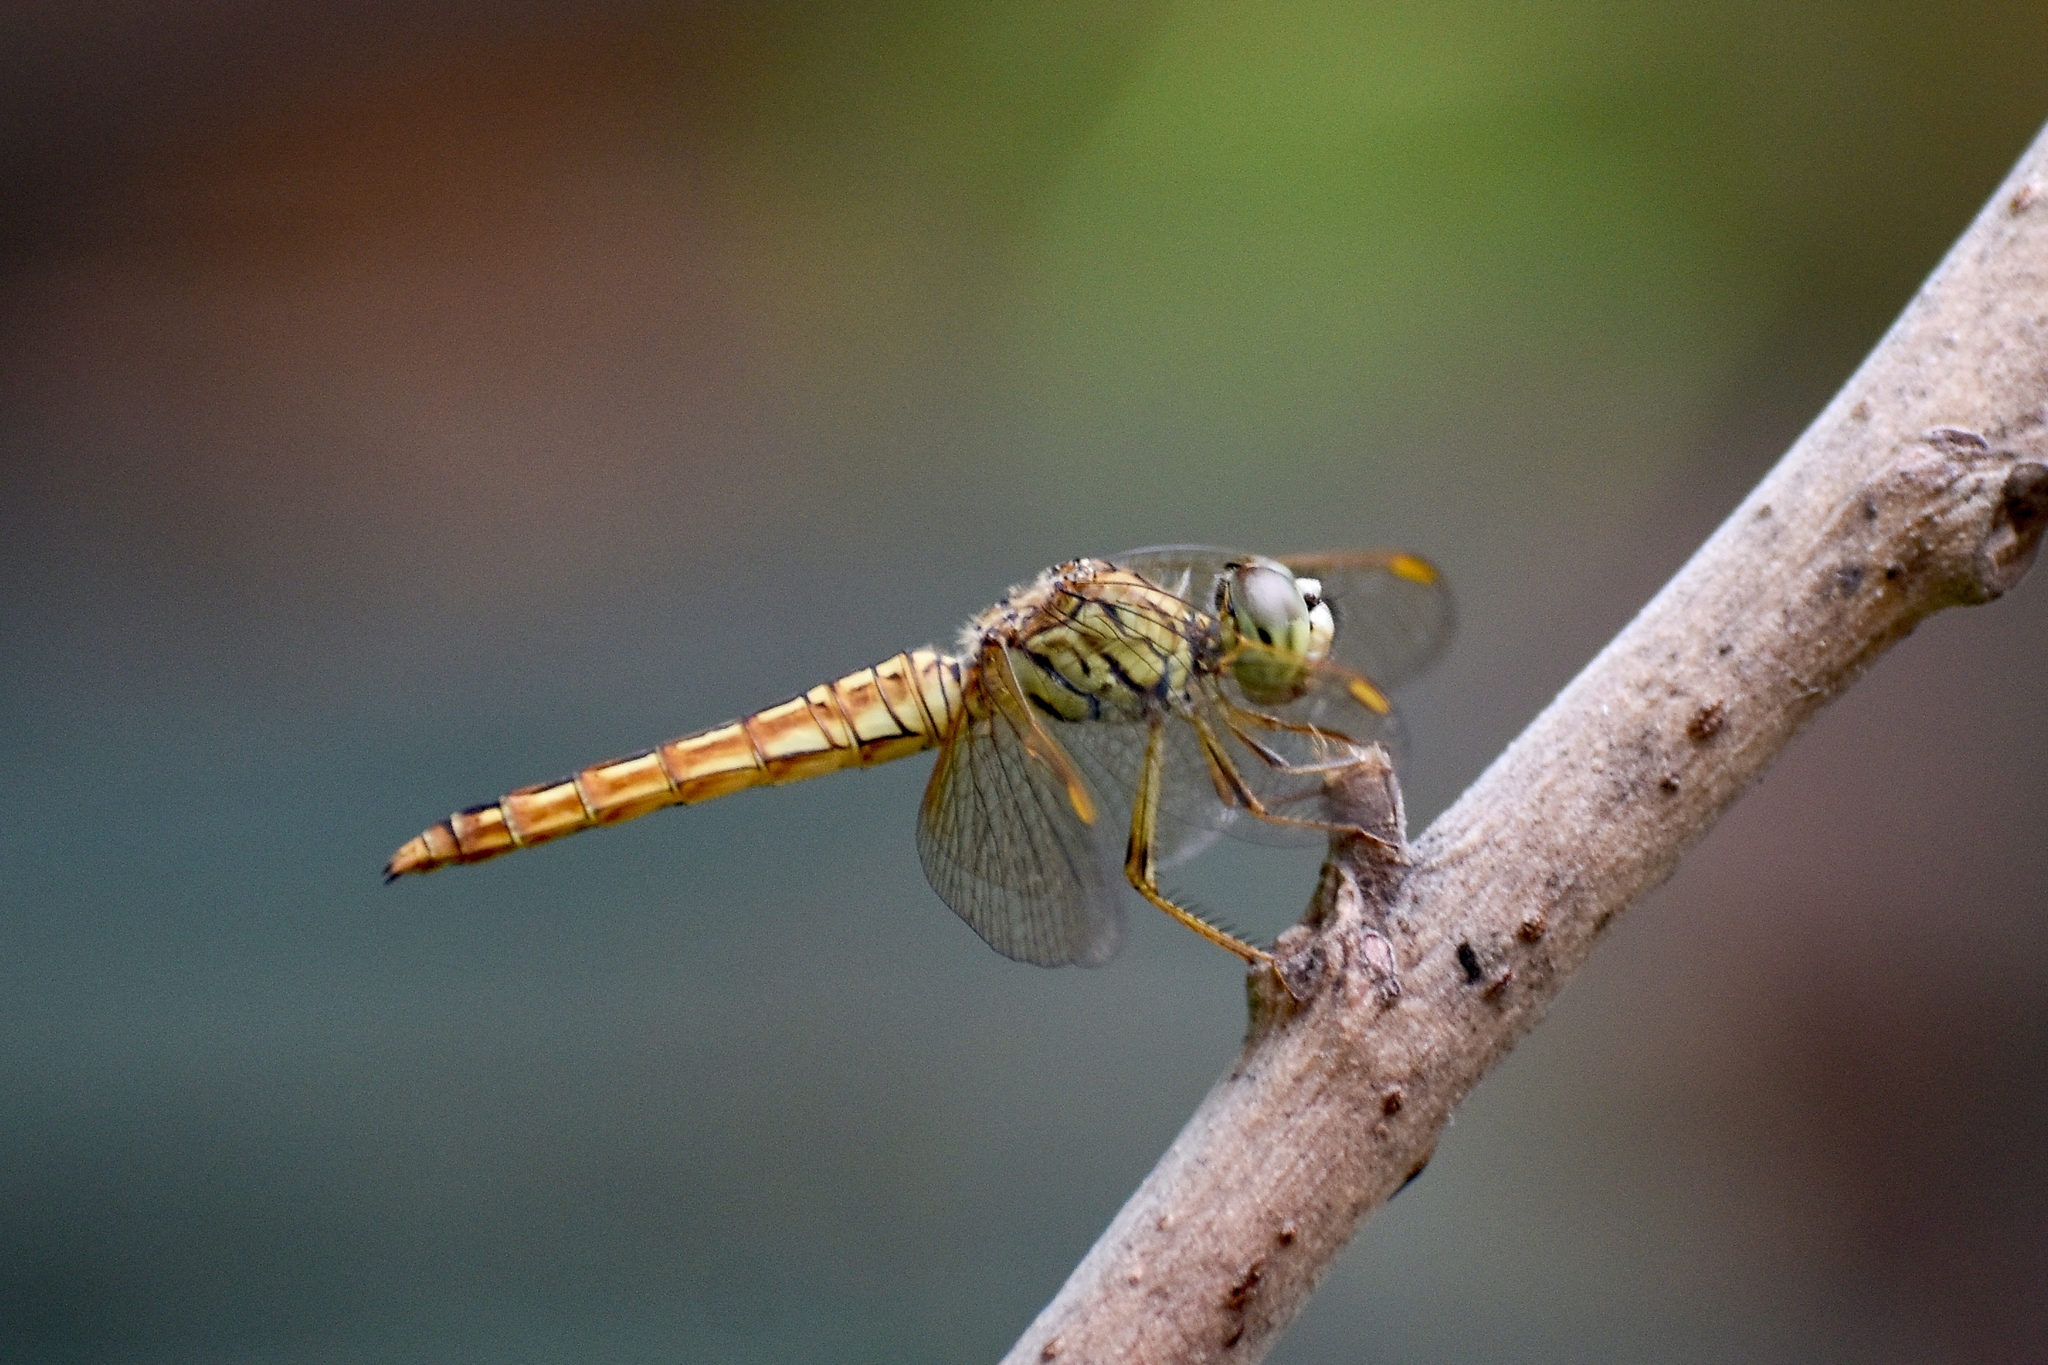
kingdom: Animalia
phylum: Arthropoda
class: Insecta
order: Odonata
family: Libellulidae
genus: Brachythemis
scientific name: Brachythemis contaminata
